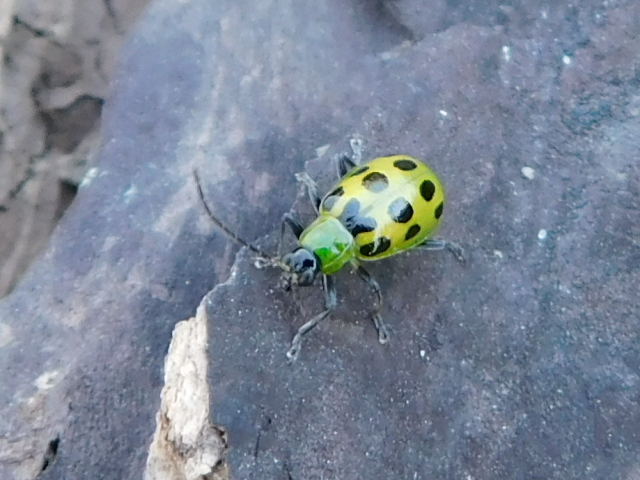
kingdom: Animalia
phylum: Arthropoda
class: Insecta
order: Coleoptera
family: Chrysomelidae
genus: Diabrotica
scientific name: Diabrotica undecimpunctata
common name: Spotted cucumber beetle
